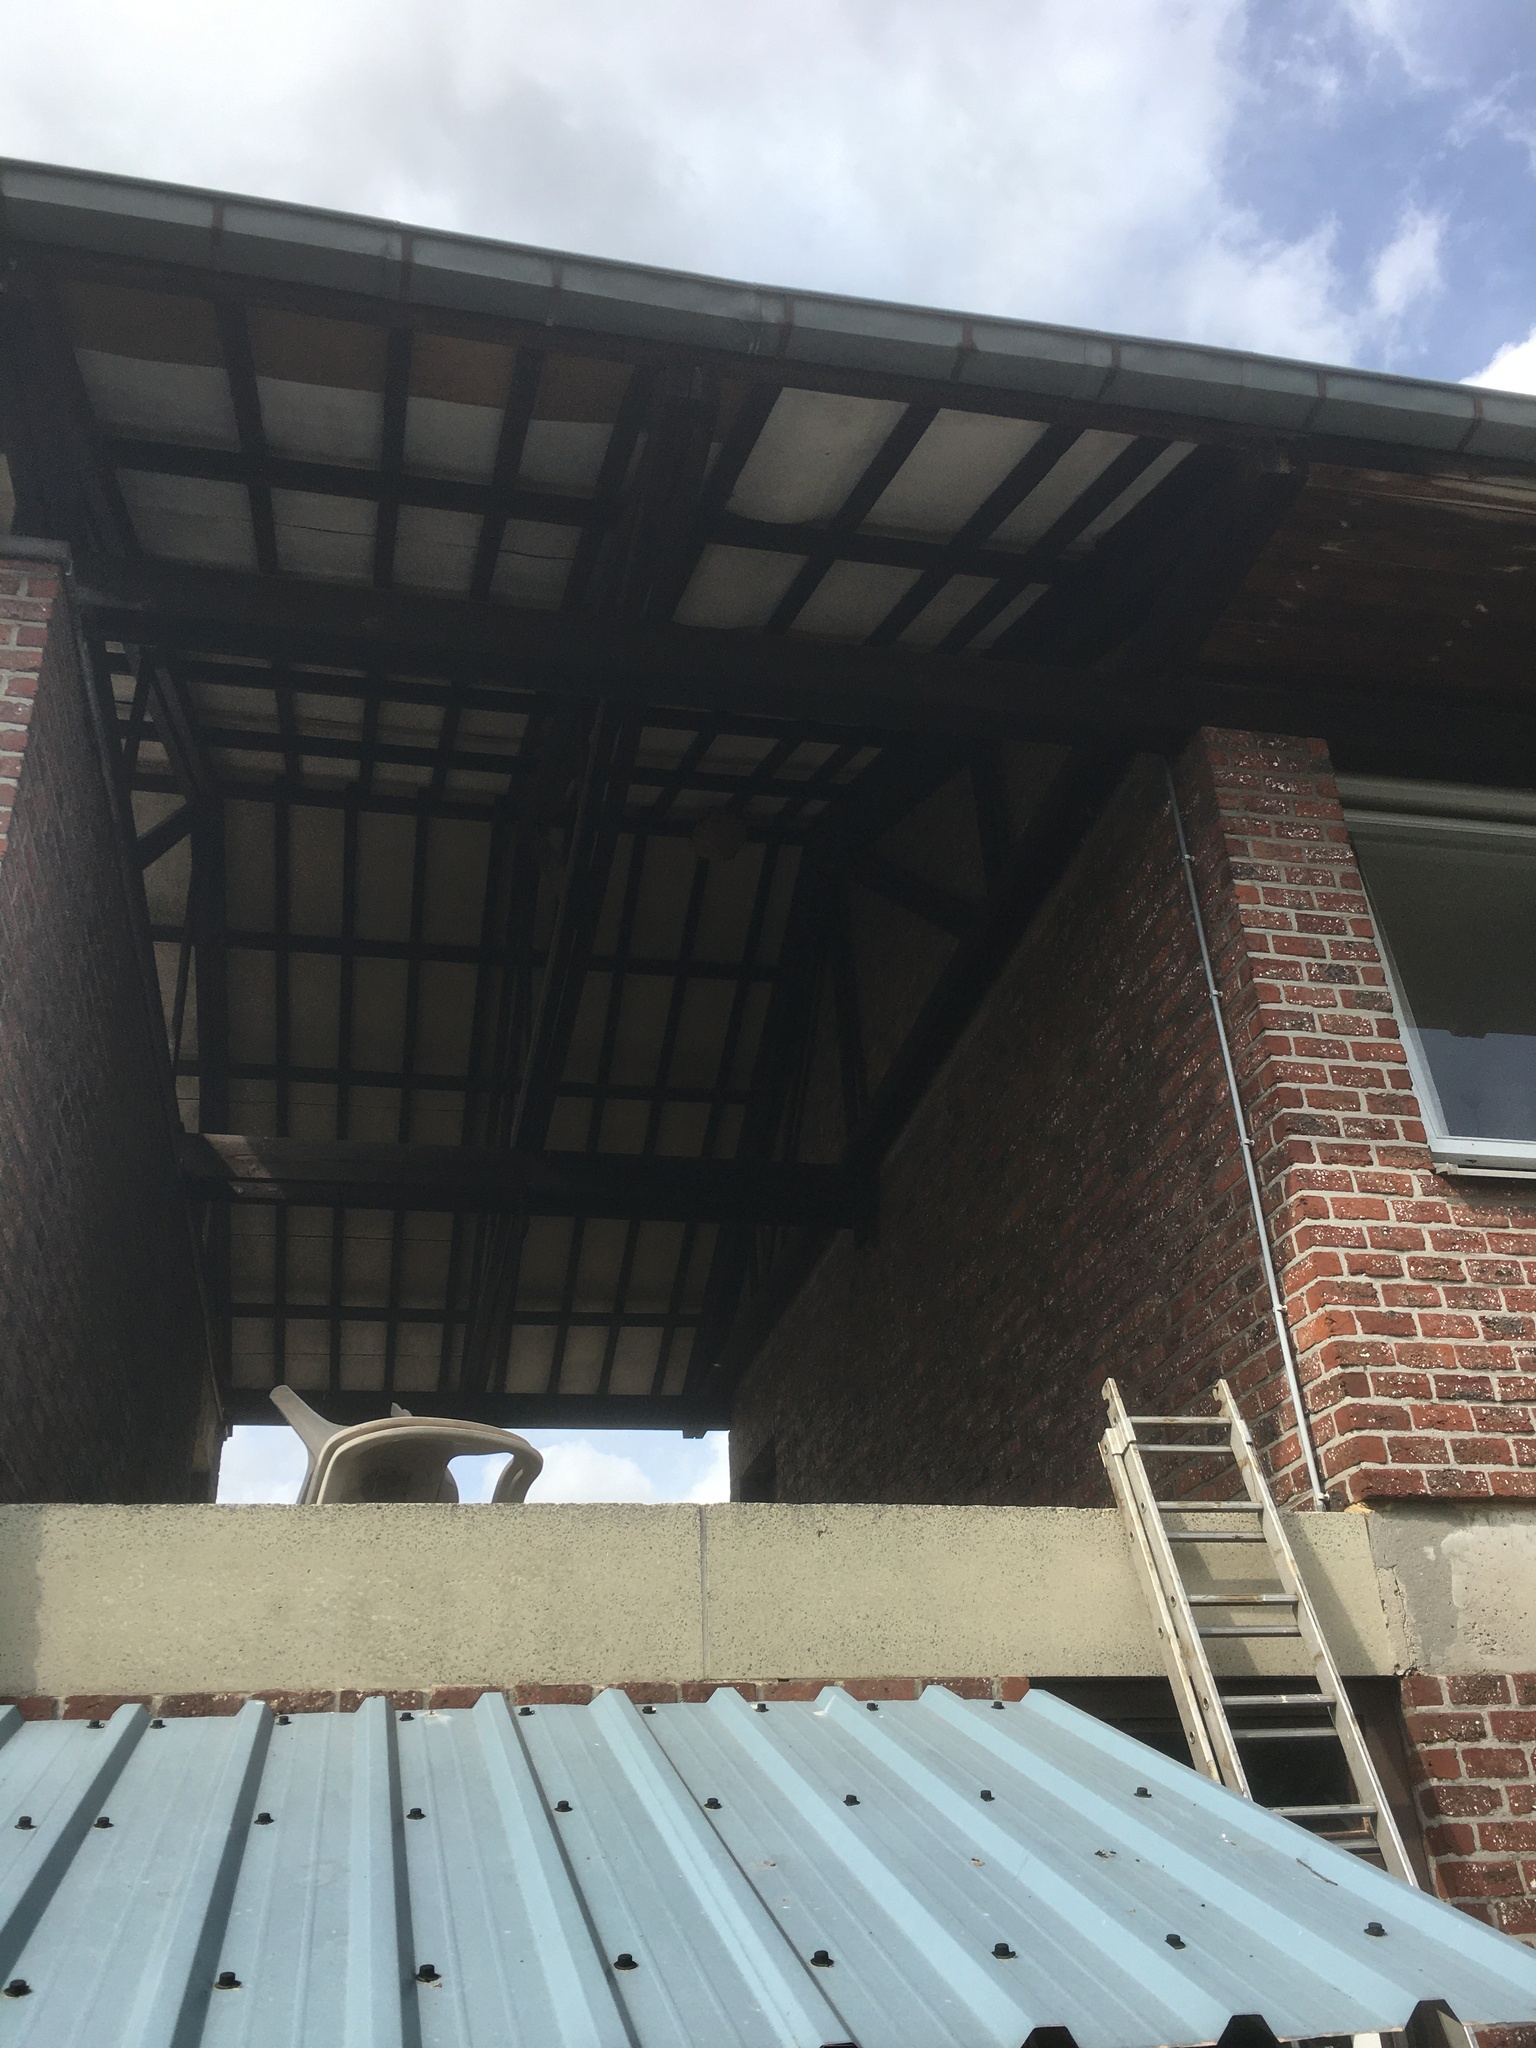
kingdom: Animalia
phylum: Arthropoda
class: Insecta
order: Hymenoptera
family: Vespidae
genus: Vespa
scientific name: Vespa velutina
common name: Asian hornet
